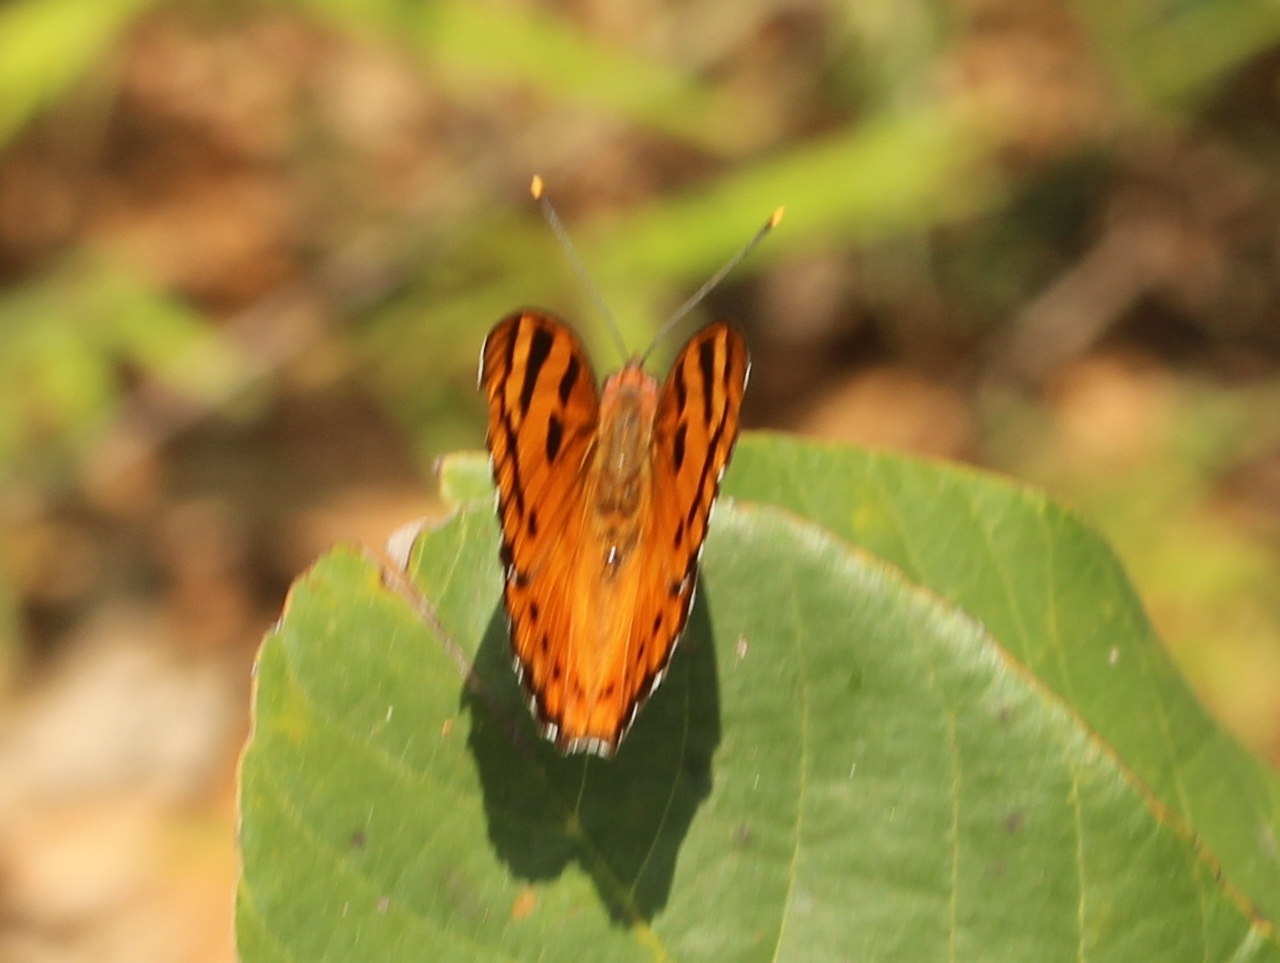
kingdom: Animalia
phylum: Arthropoda
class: Insecta
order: Lepidoptera
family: Nymphalidae
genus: Euthalia
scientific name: Euthalia nais
